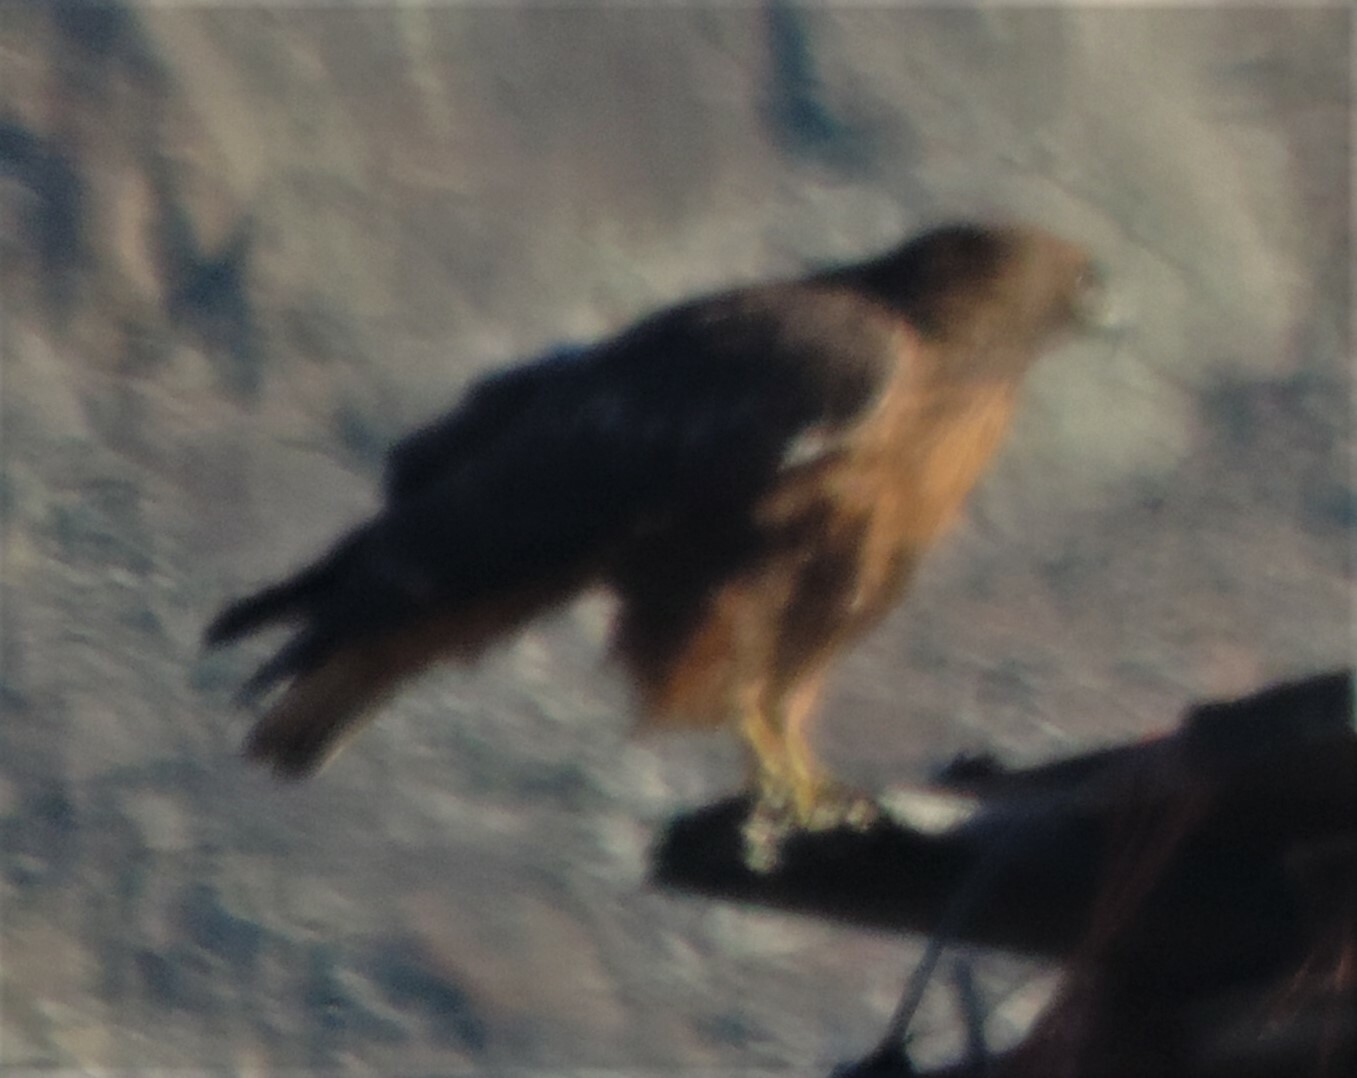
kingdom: Animalia
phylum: Chordata
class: Aves
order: Accipitriformes
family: Accipitridae
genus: Buteo
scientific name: Buteo jamaicensis
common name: Red-tailed hawk
